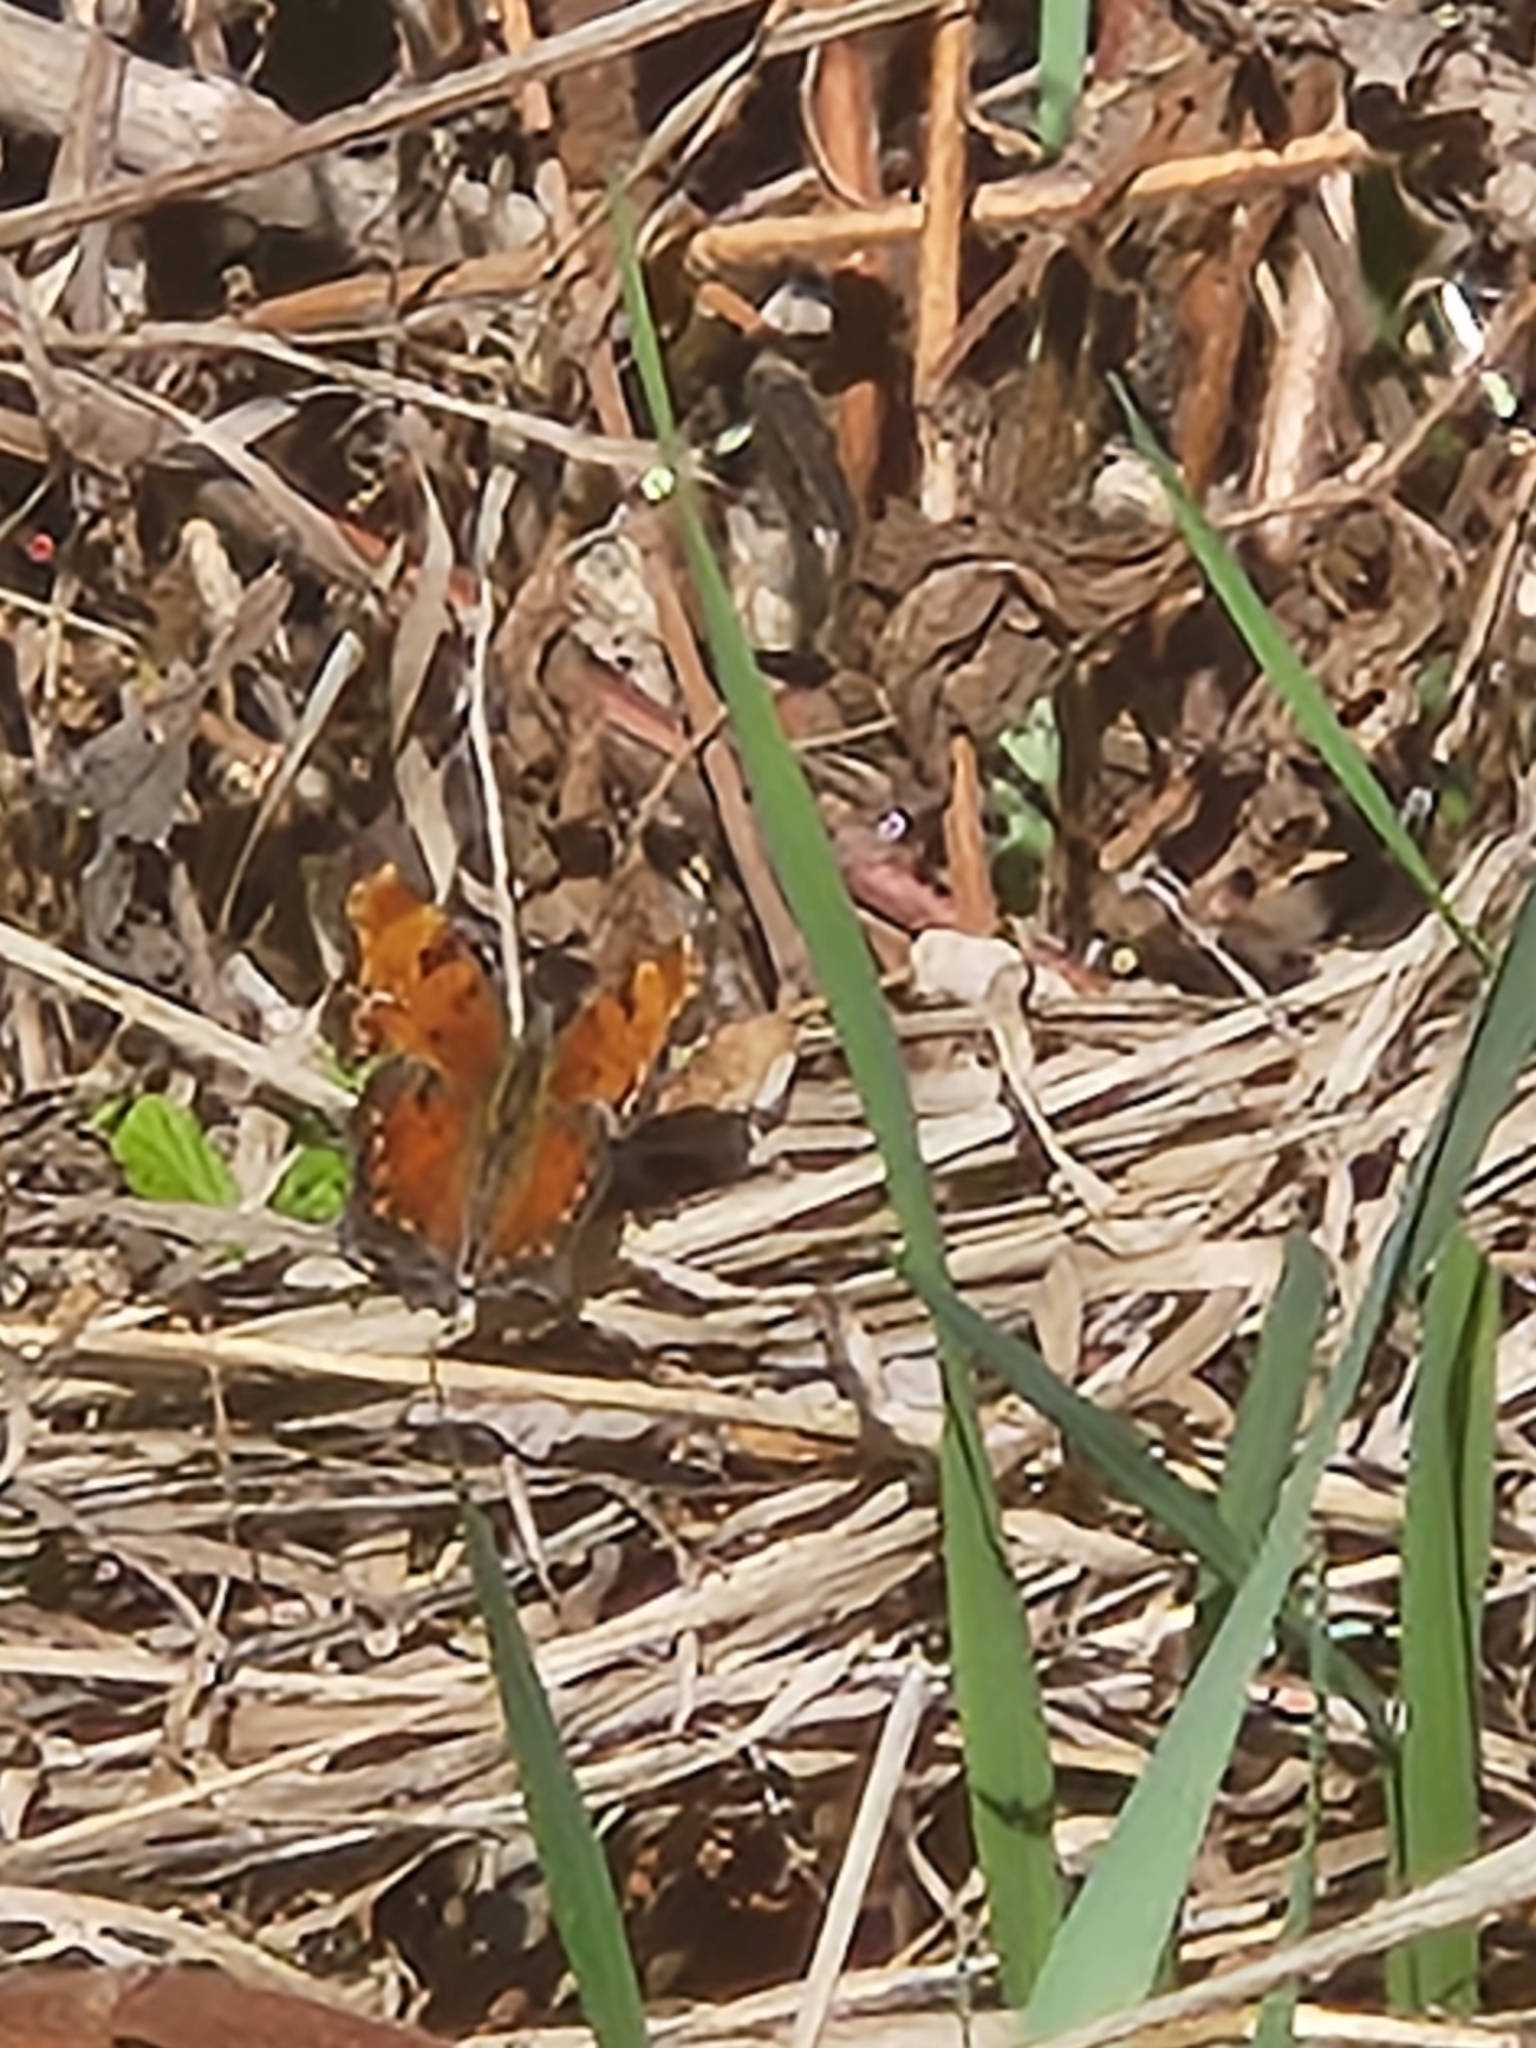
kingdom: Animalia
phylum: Arthropoda
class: Insecta
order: Lepidoptera
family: Nymphalidae
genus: Polygonia
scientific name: Polygonia faunus
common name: Green comma
